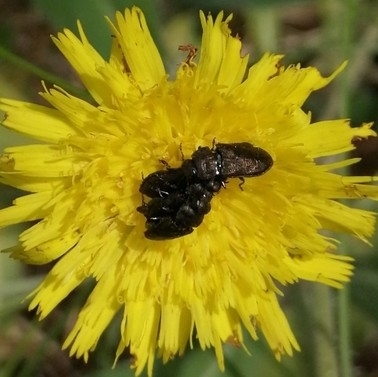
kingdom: Animalia
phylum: Arthropoda
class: Insecta
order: Coleoptera
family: Buprestidae
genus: Anthaxia
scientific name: Anthaxia quadripunctata
